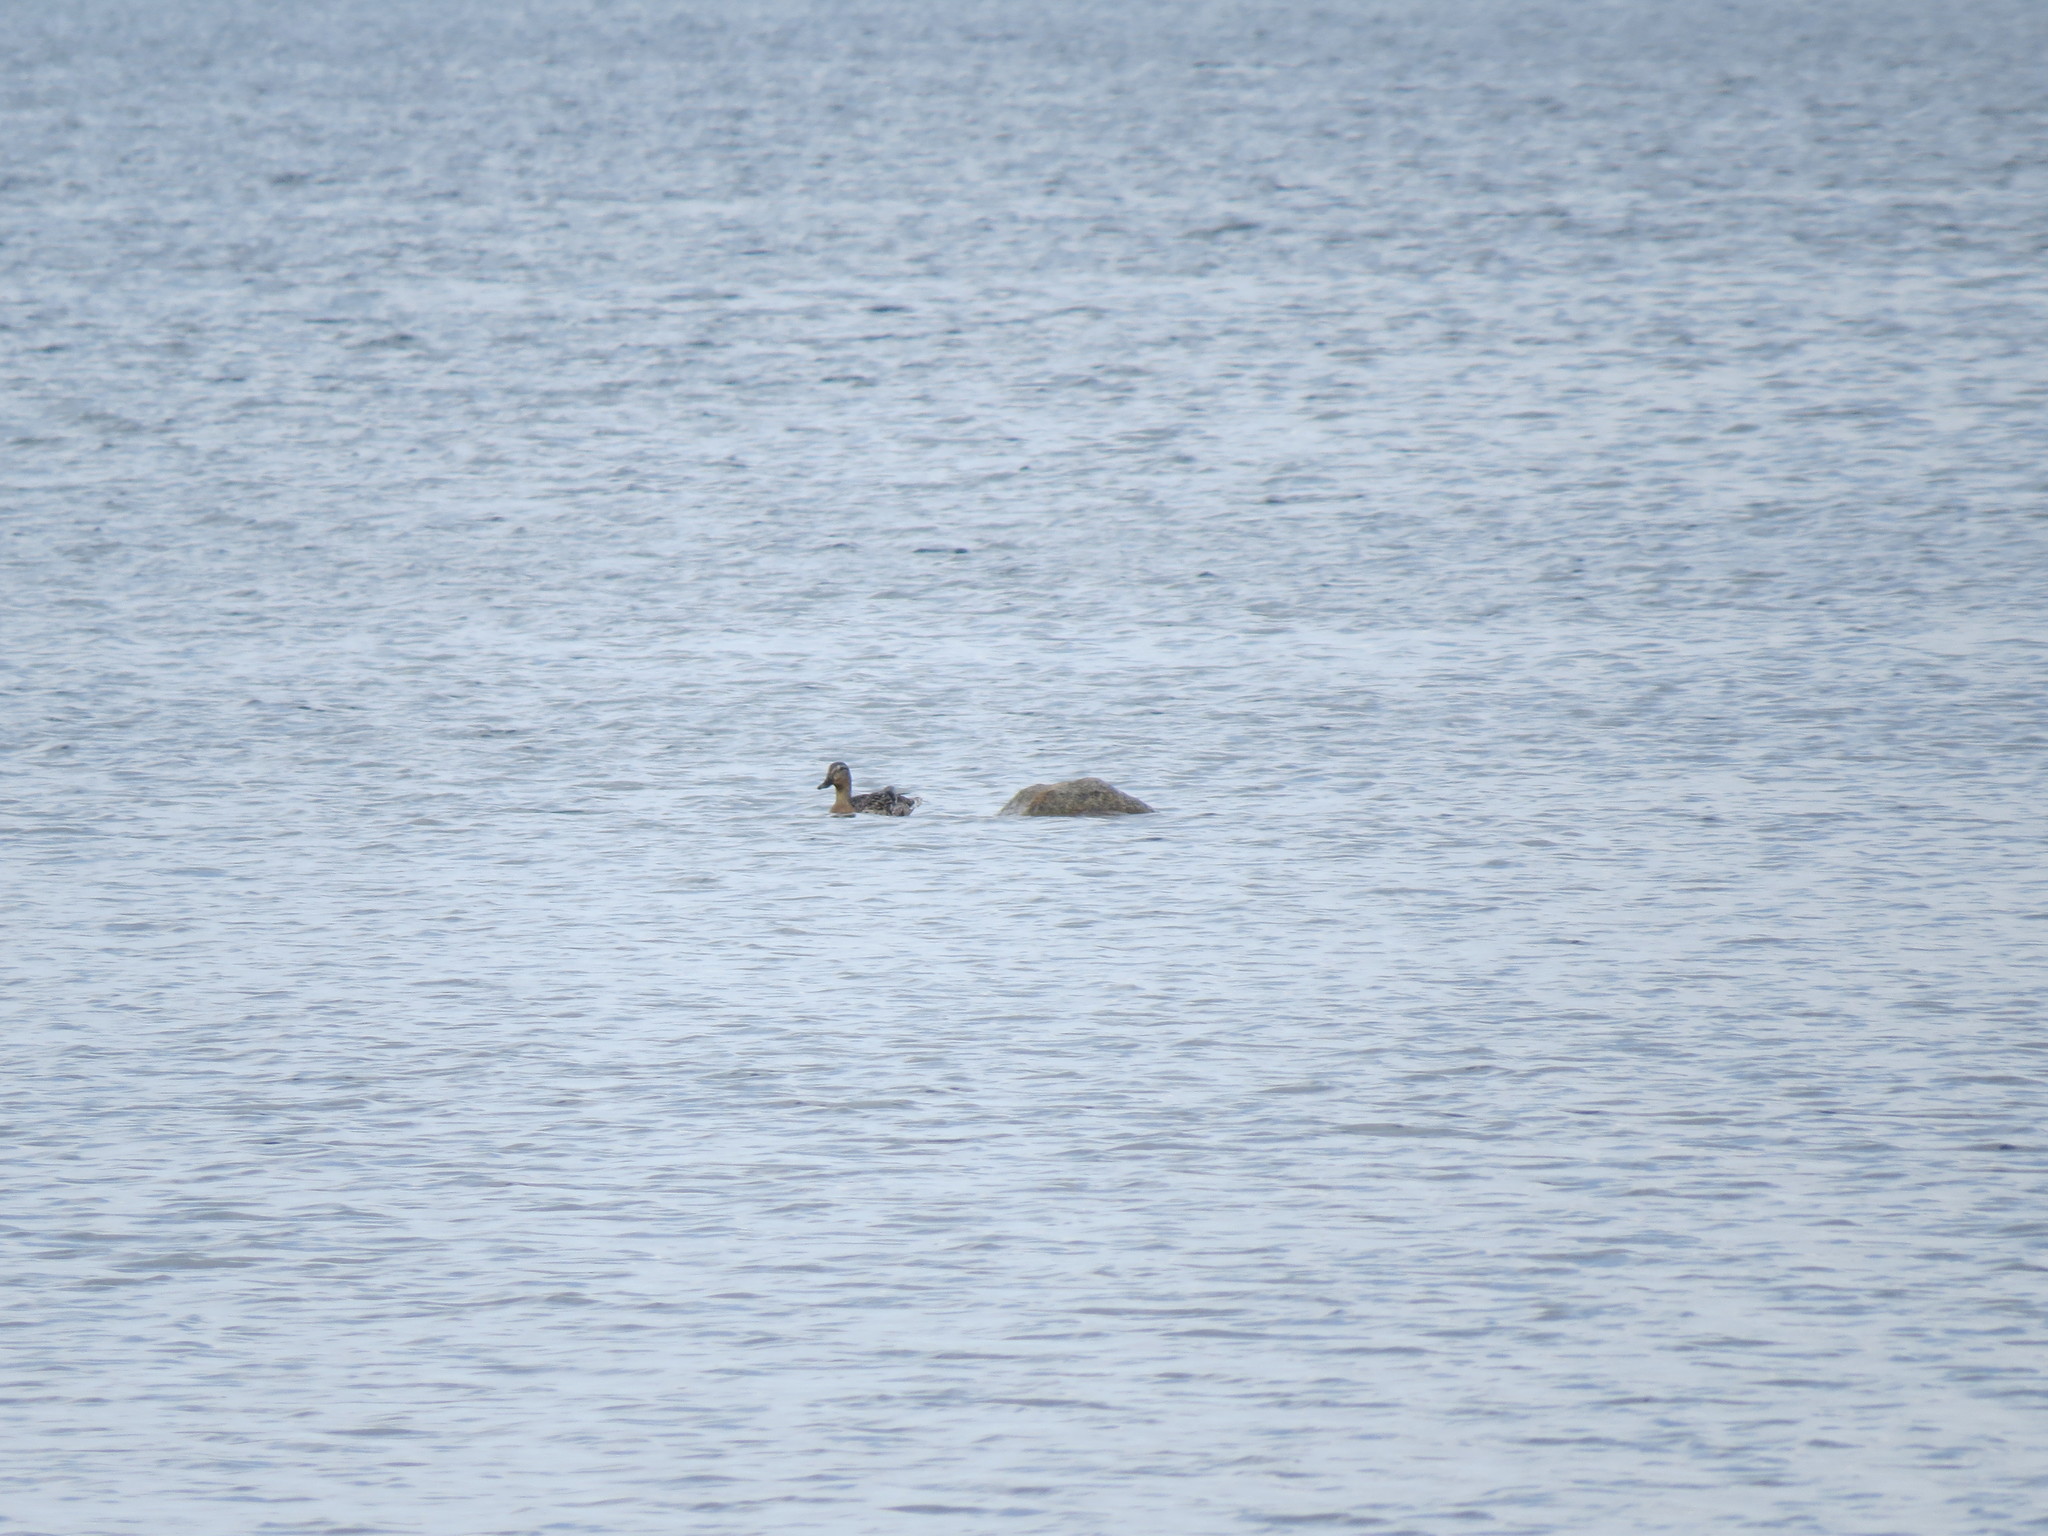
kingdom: Animalia
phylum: Chordata
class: Aves
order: Anseriformes
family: Anatidae
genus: Anas
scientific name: Anas platyrhynchos
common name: Mallard
